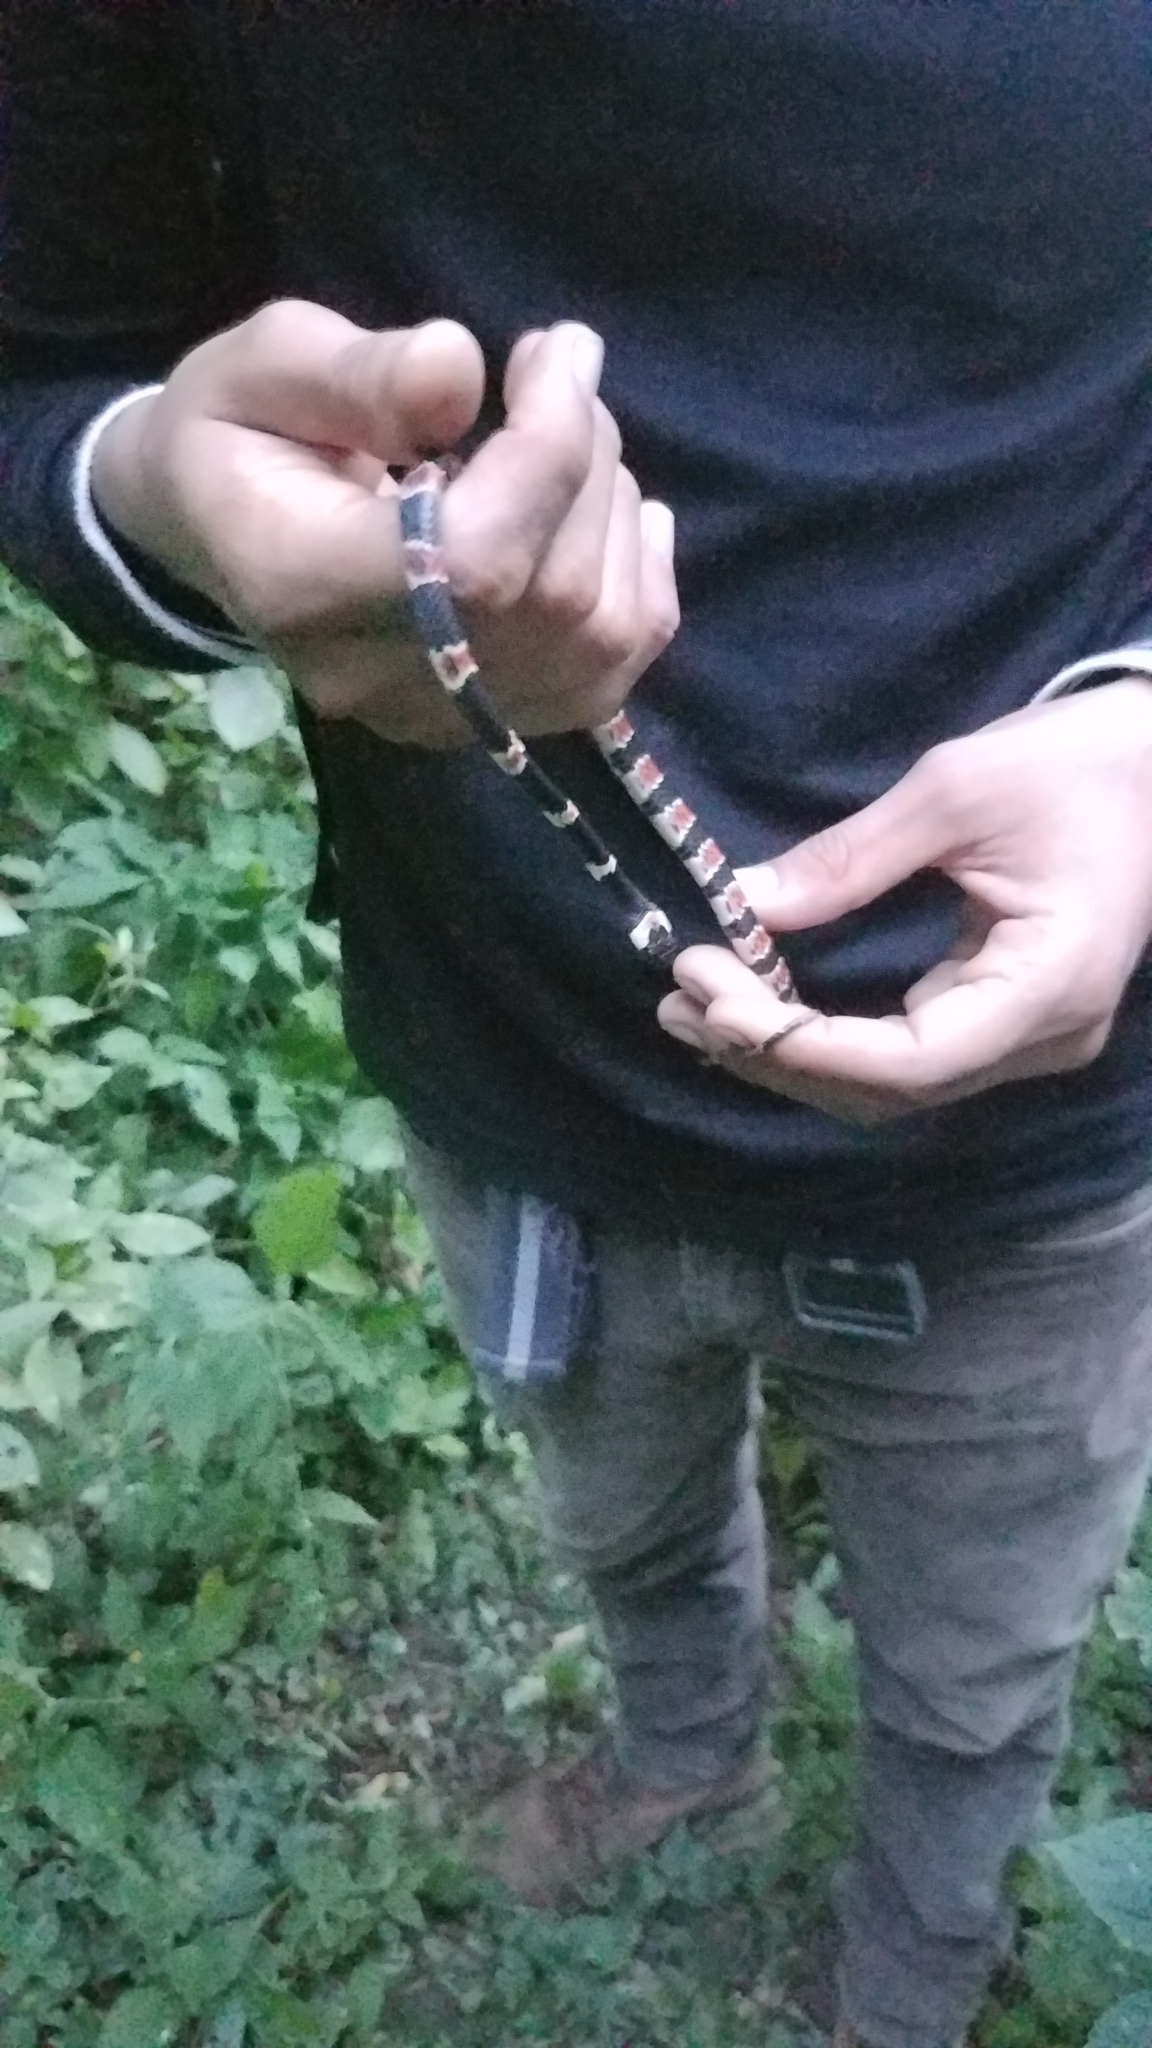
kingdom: Animalia
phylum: Chordata
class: Squamata
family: Colubridae
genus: Sibon
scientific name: Sibon anthracops
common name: Cope's snail sucker
